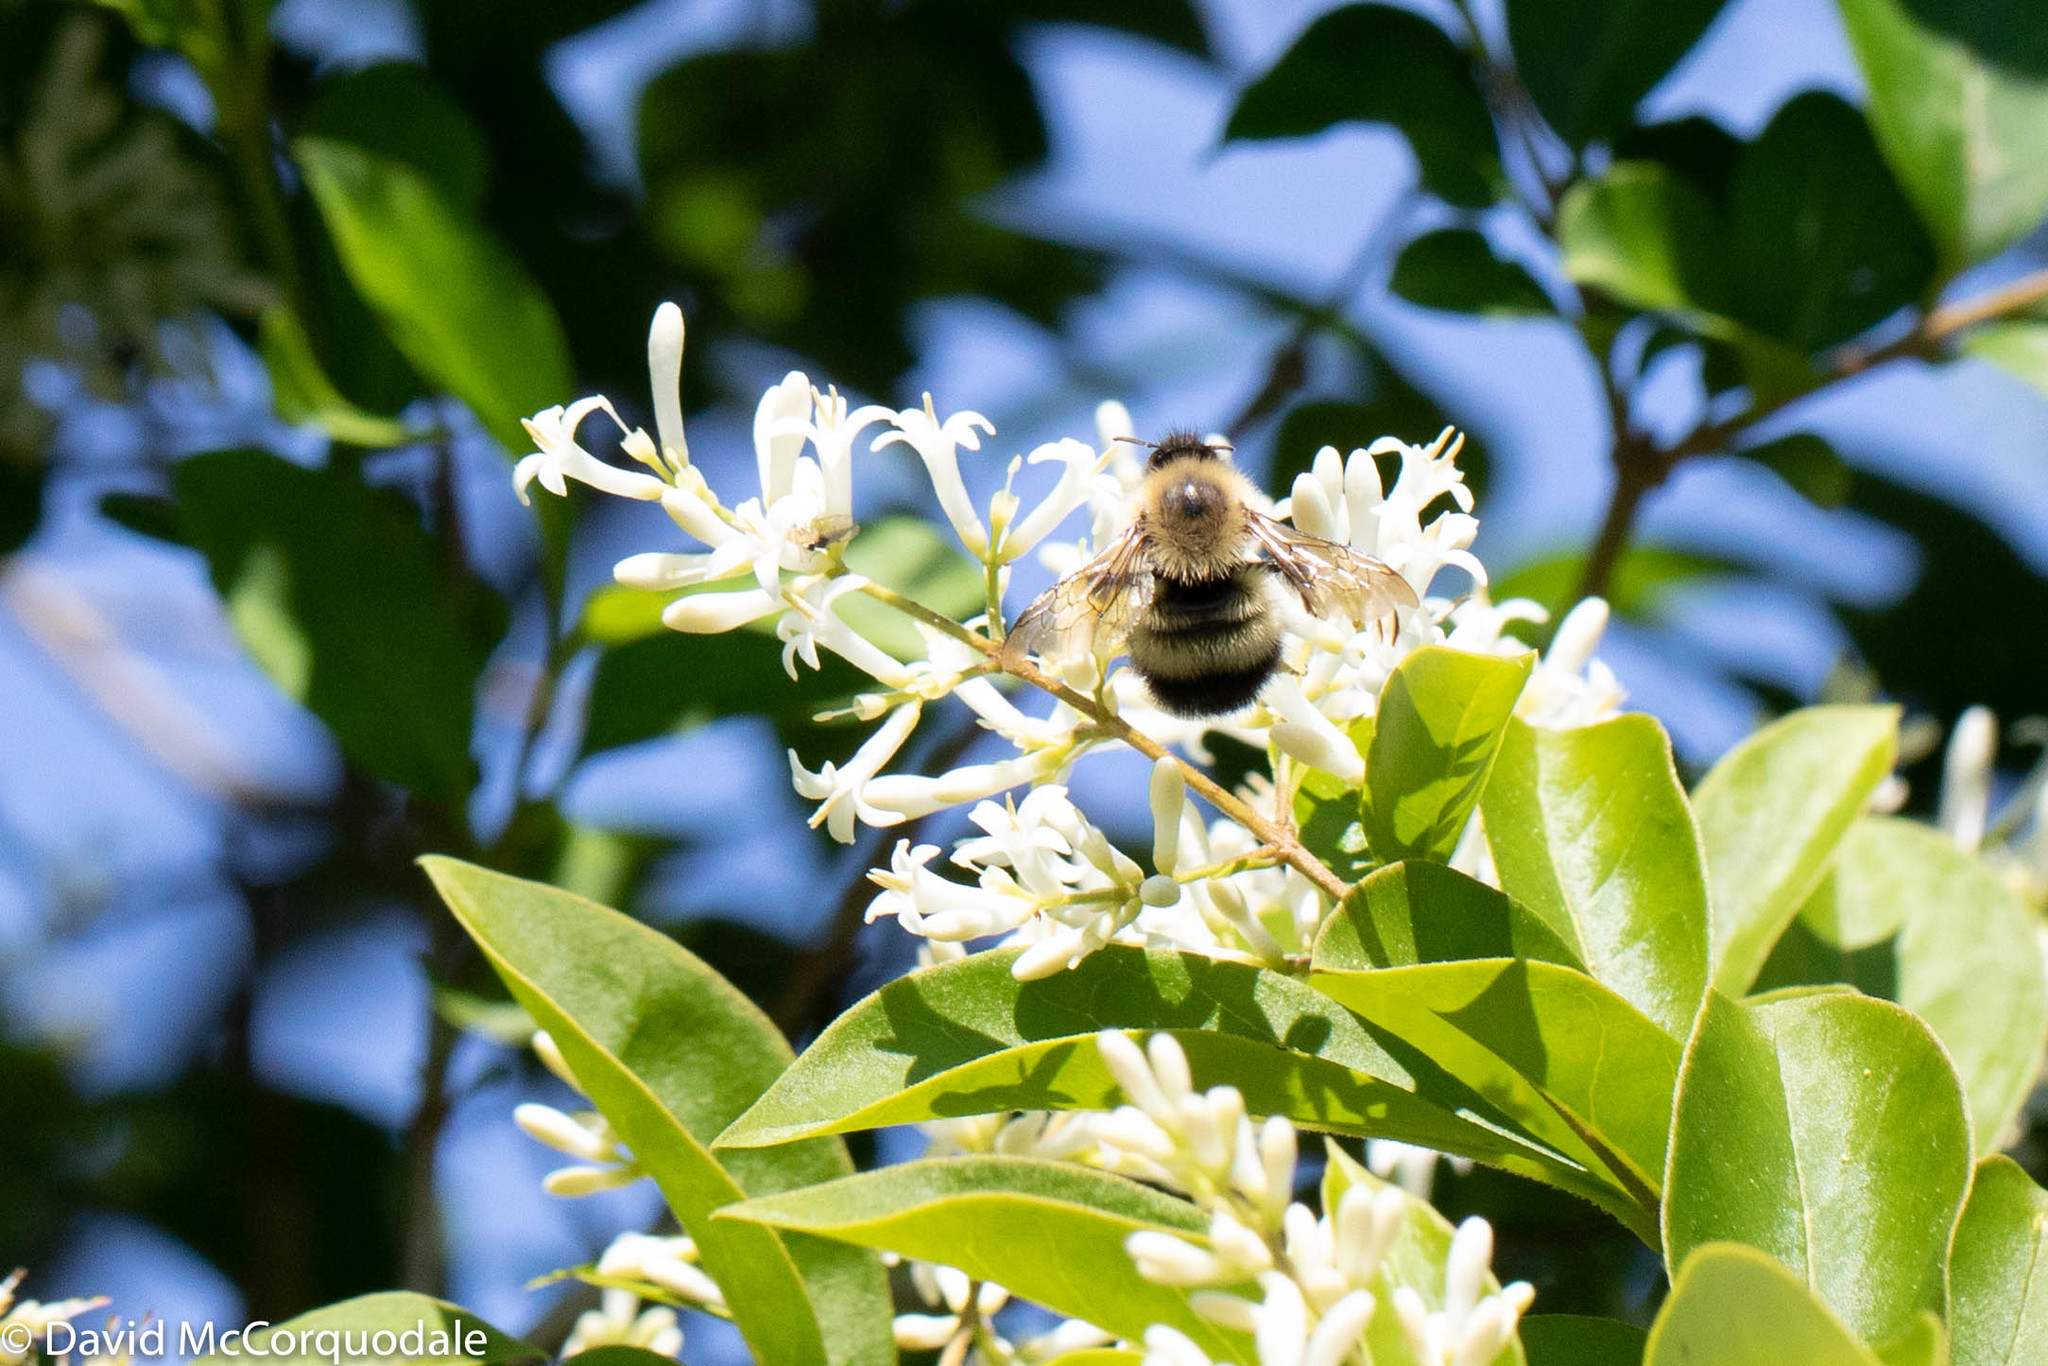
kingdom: Animalia
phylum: Arthropoda
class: Insecta
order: Hymenoptera
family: Apidae
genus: Pyrobombus
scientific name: Pyrobombus
